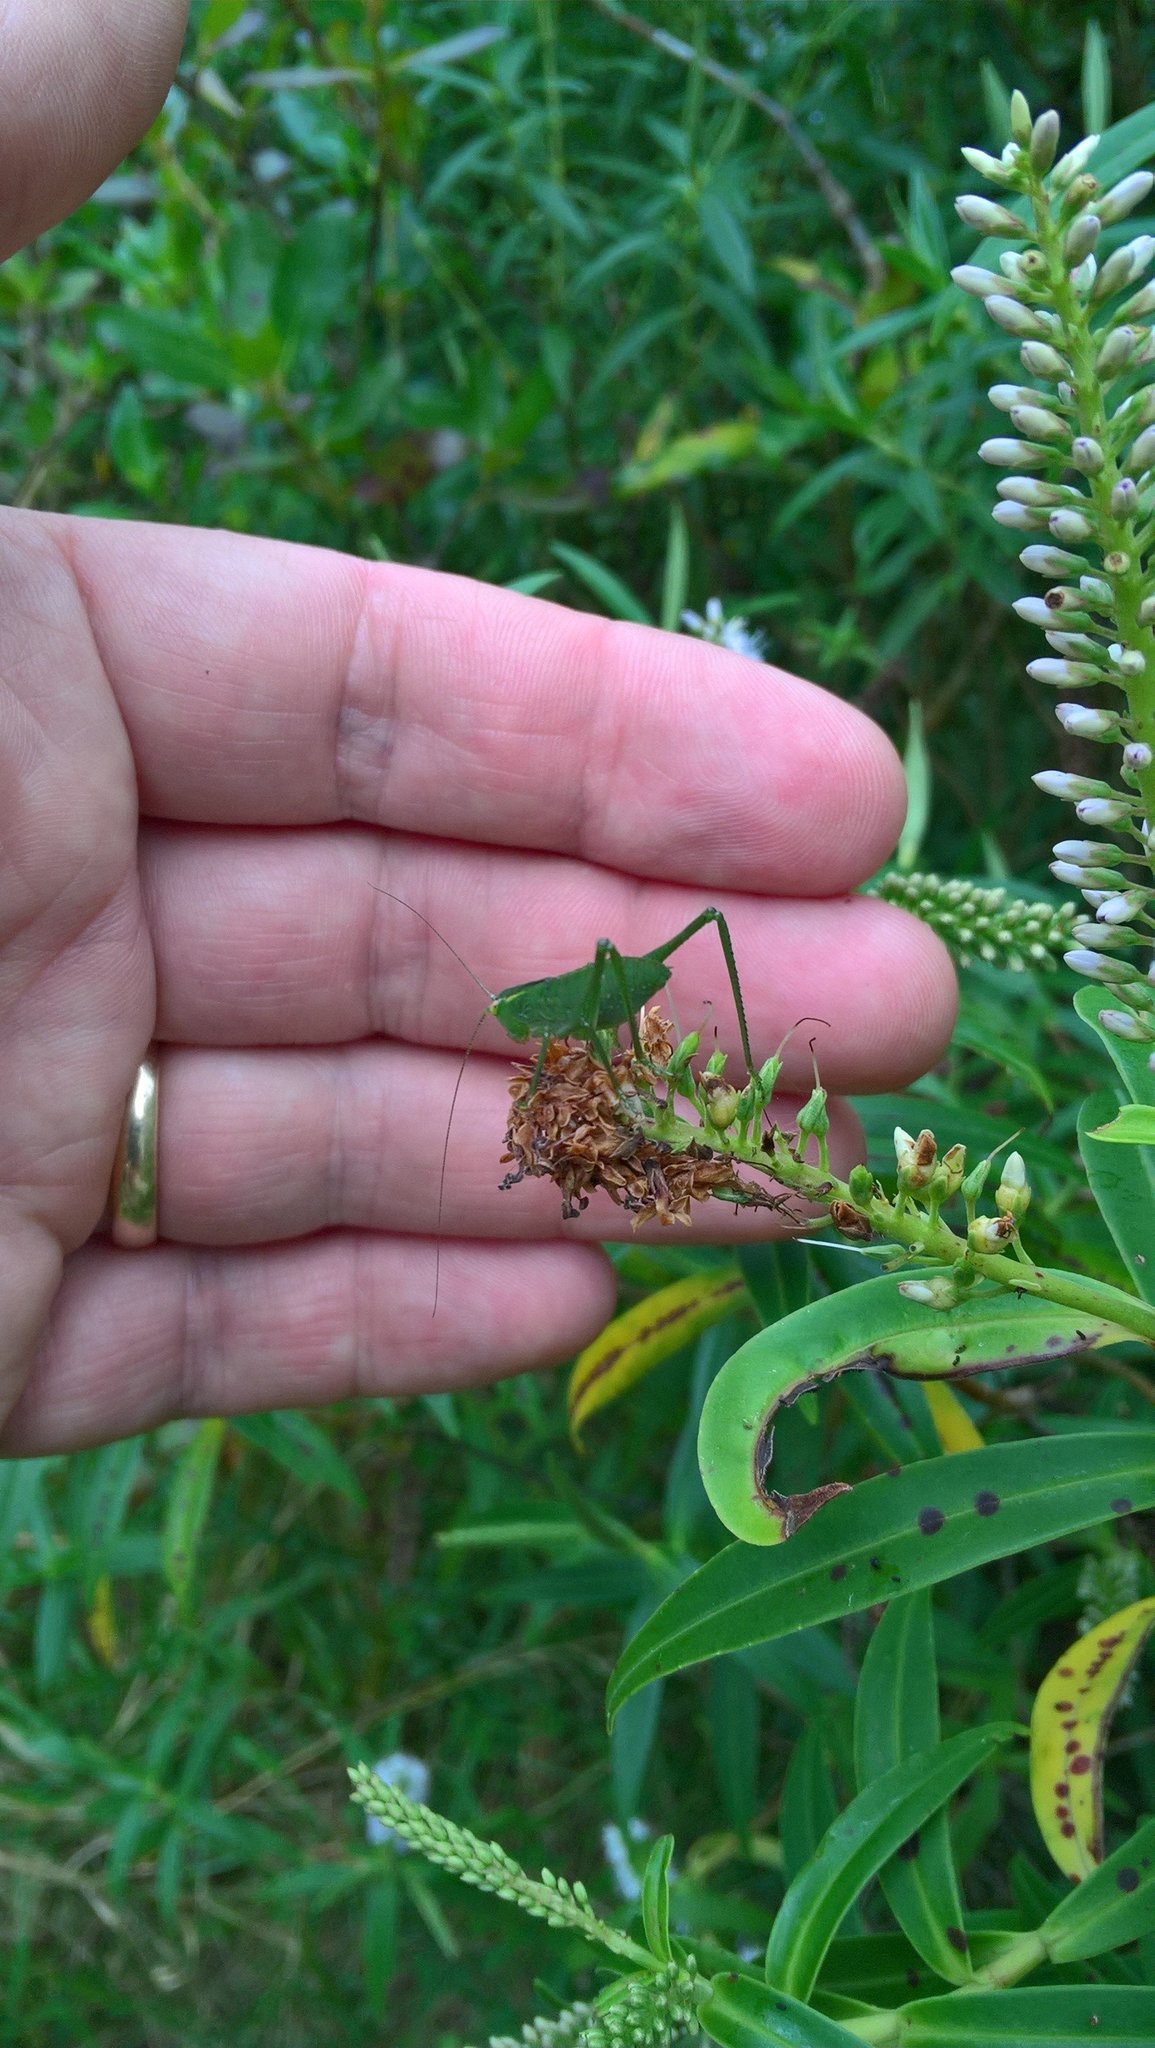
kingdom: Animalia
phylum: Arthropoda
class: Insecta
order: Orthoptera
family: Tettigoniidae
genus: Caedicia
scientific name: Caedicia simplex
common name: Common garden katydid
